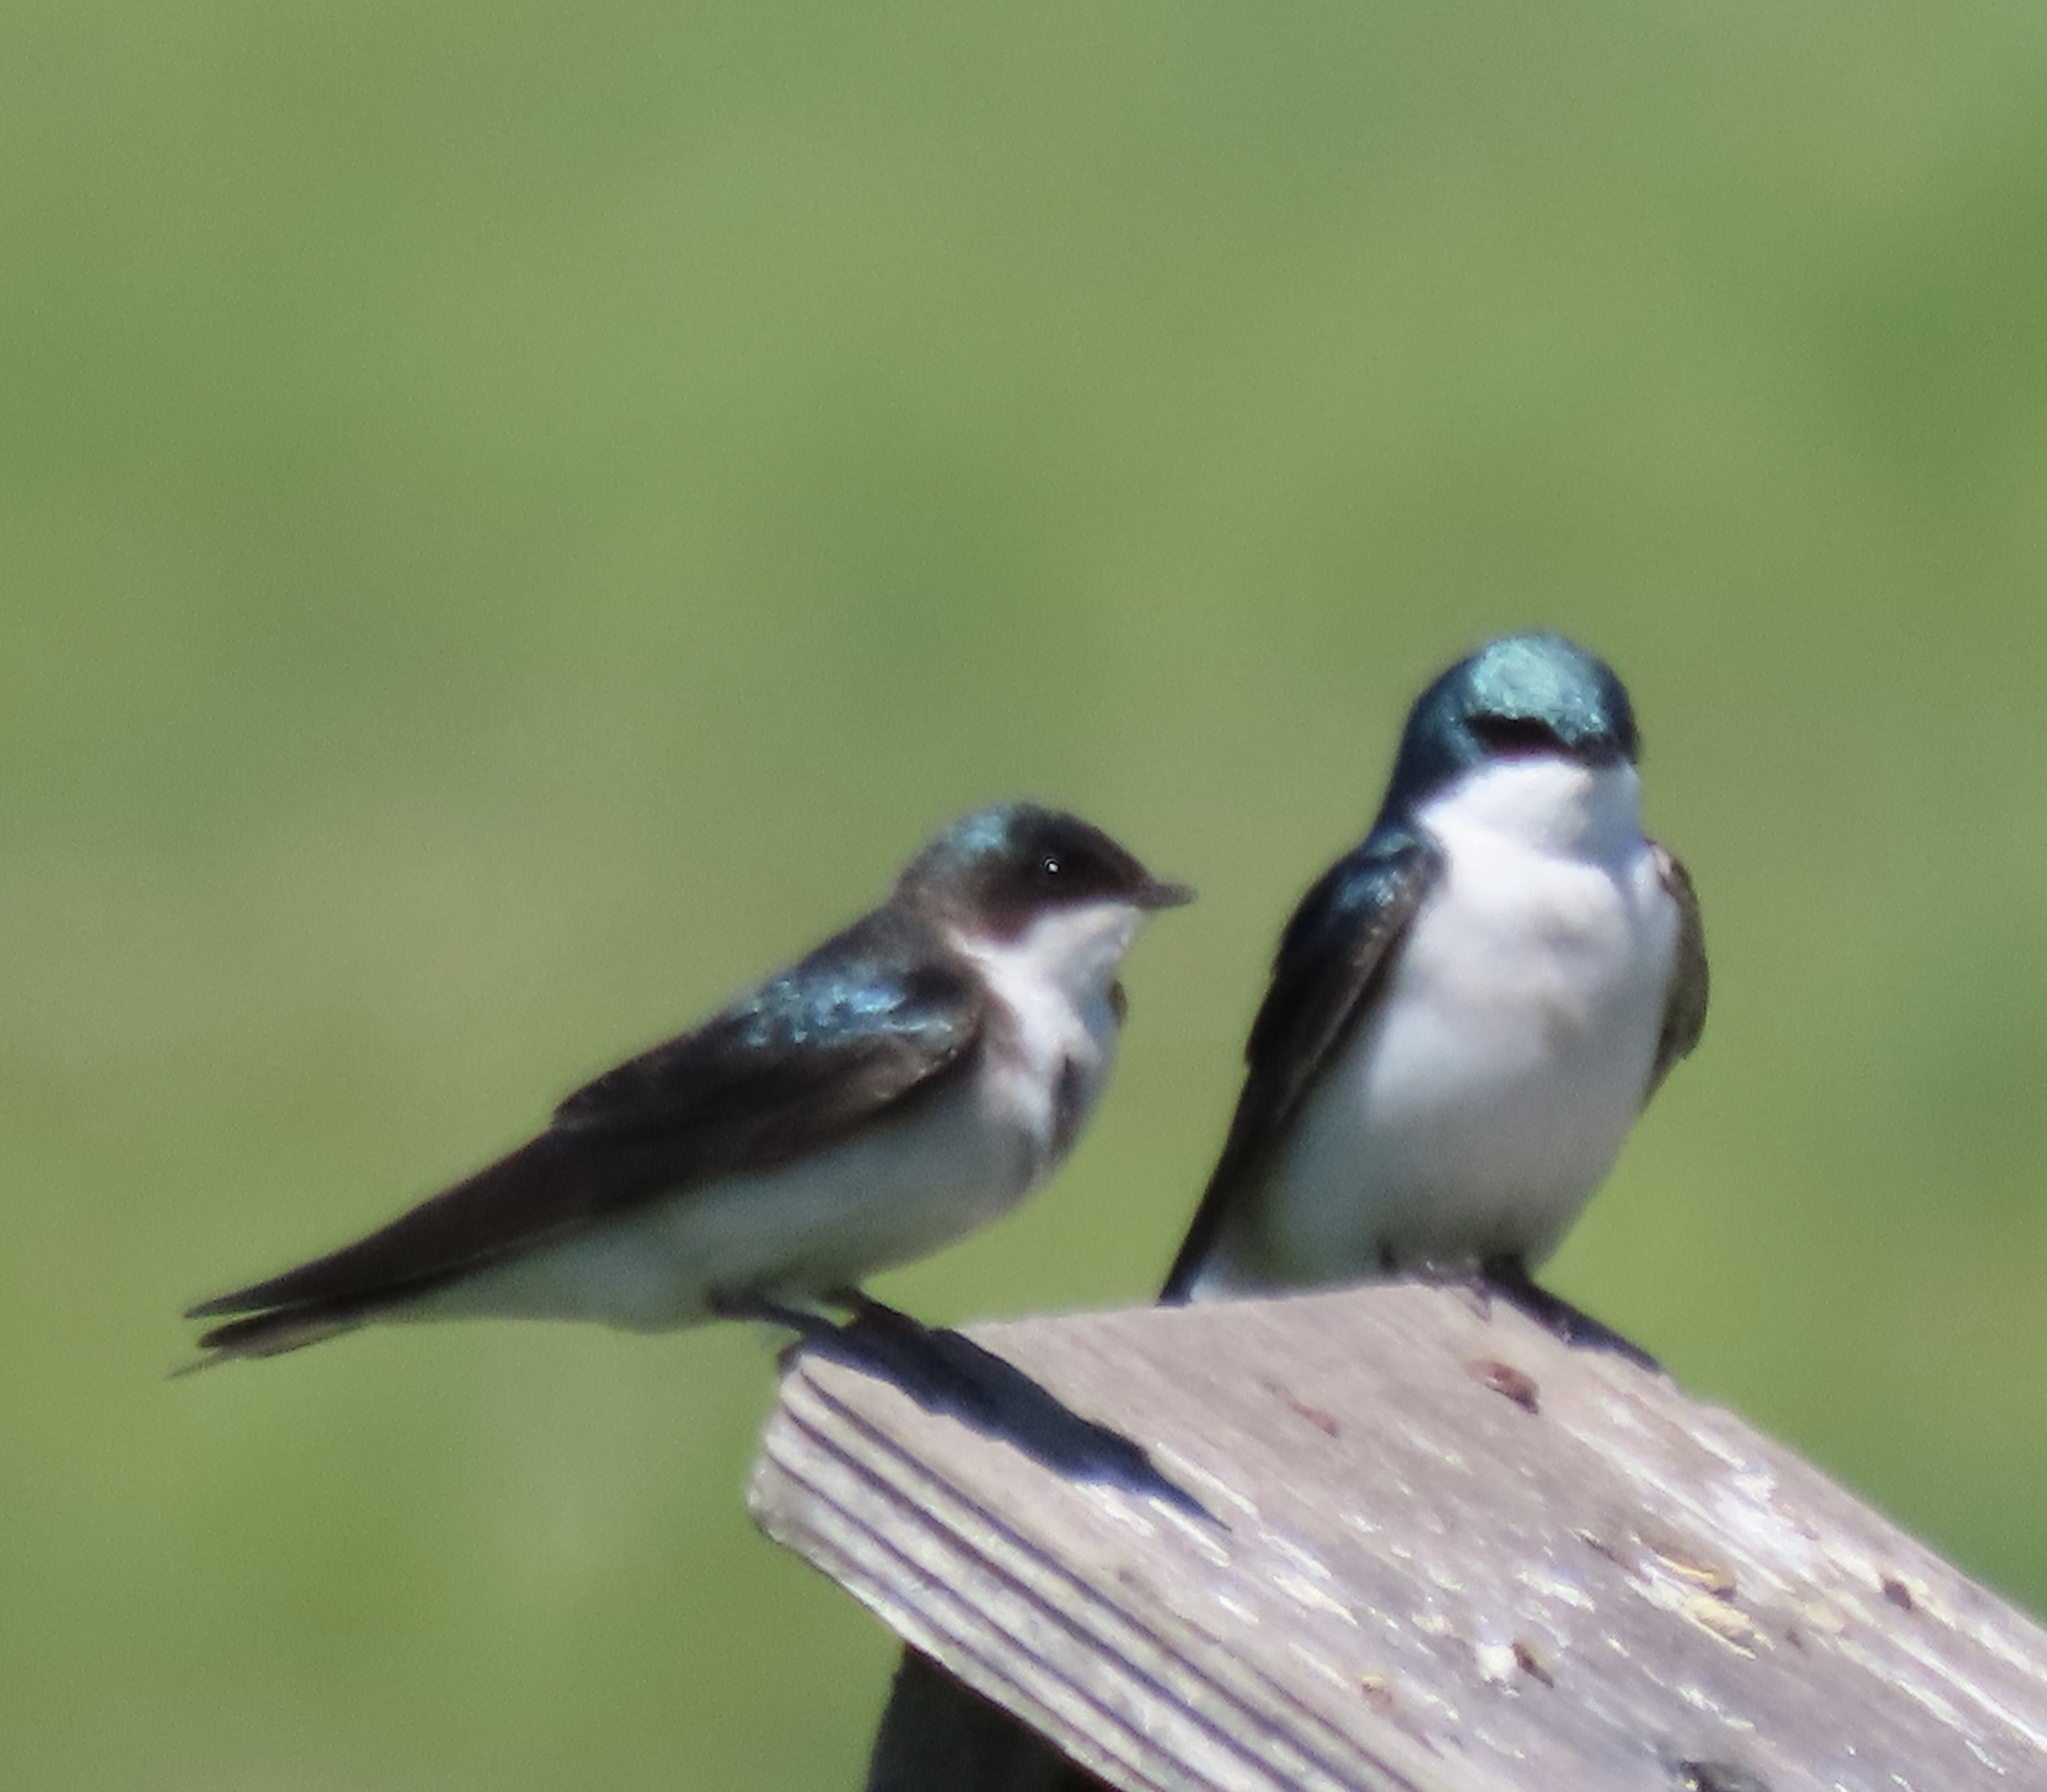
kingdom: Animalia
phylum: Chordata
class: Aves
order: Passeriformes
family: Hirundinidae
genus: Tachycineta
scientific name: Tachycineta bicolor
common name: Tree swallow
